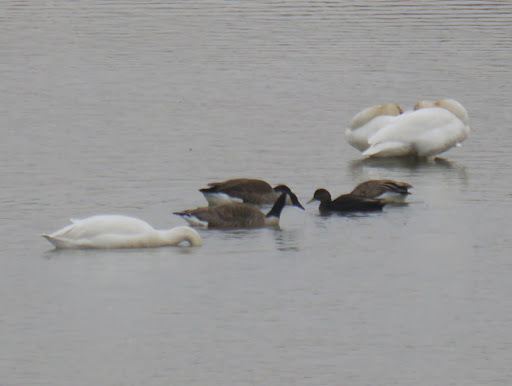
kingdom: Animalia
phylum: Chordata
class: Aves
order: Anseriformes
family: Anatidae
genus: Branta
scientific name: Branta canadensis
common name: Canada goose
